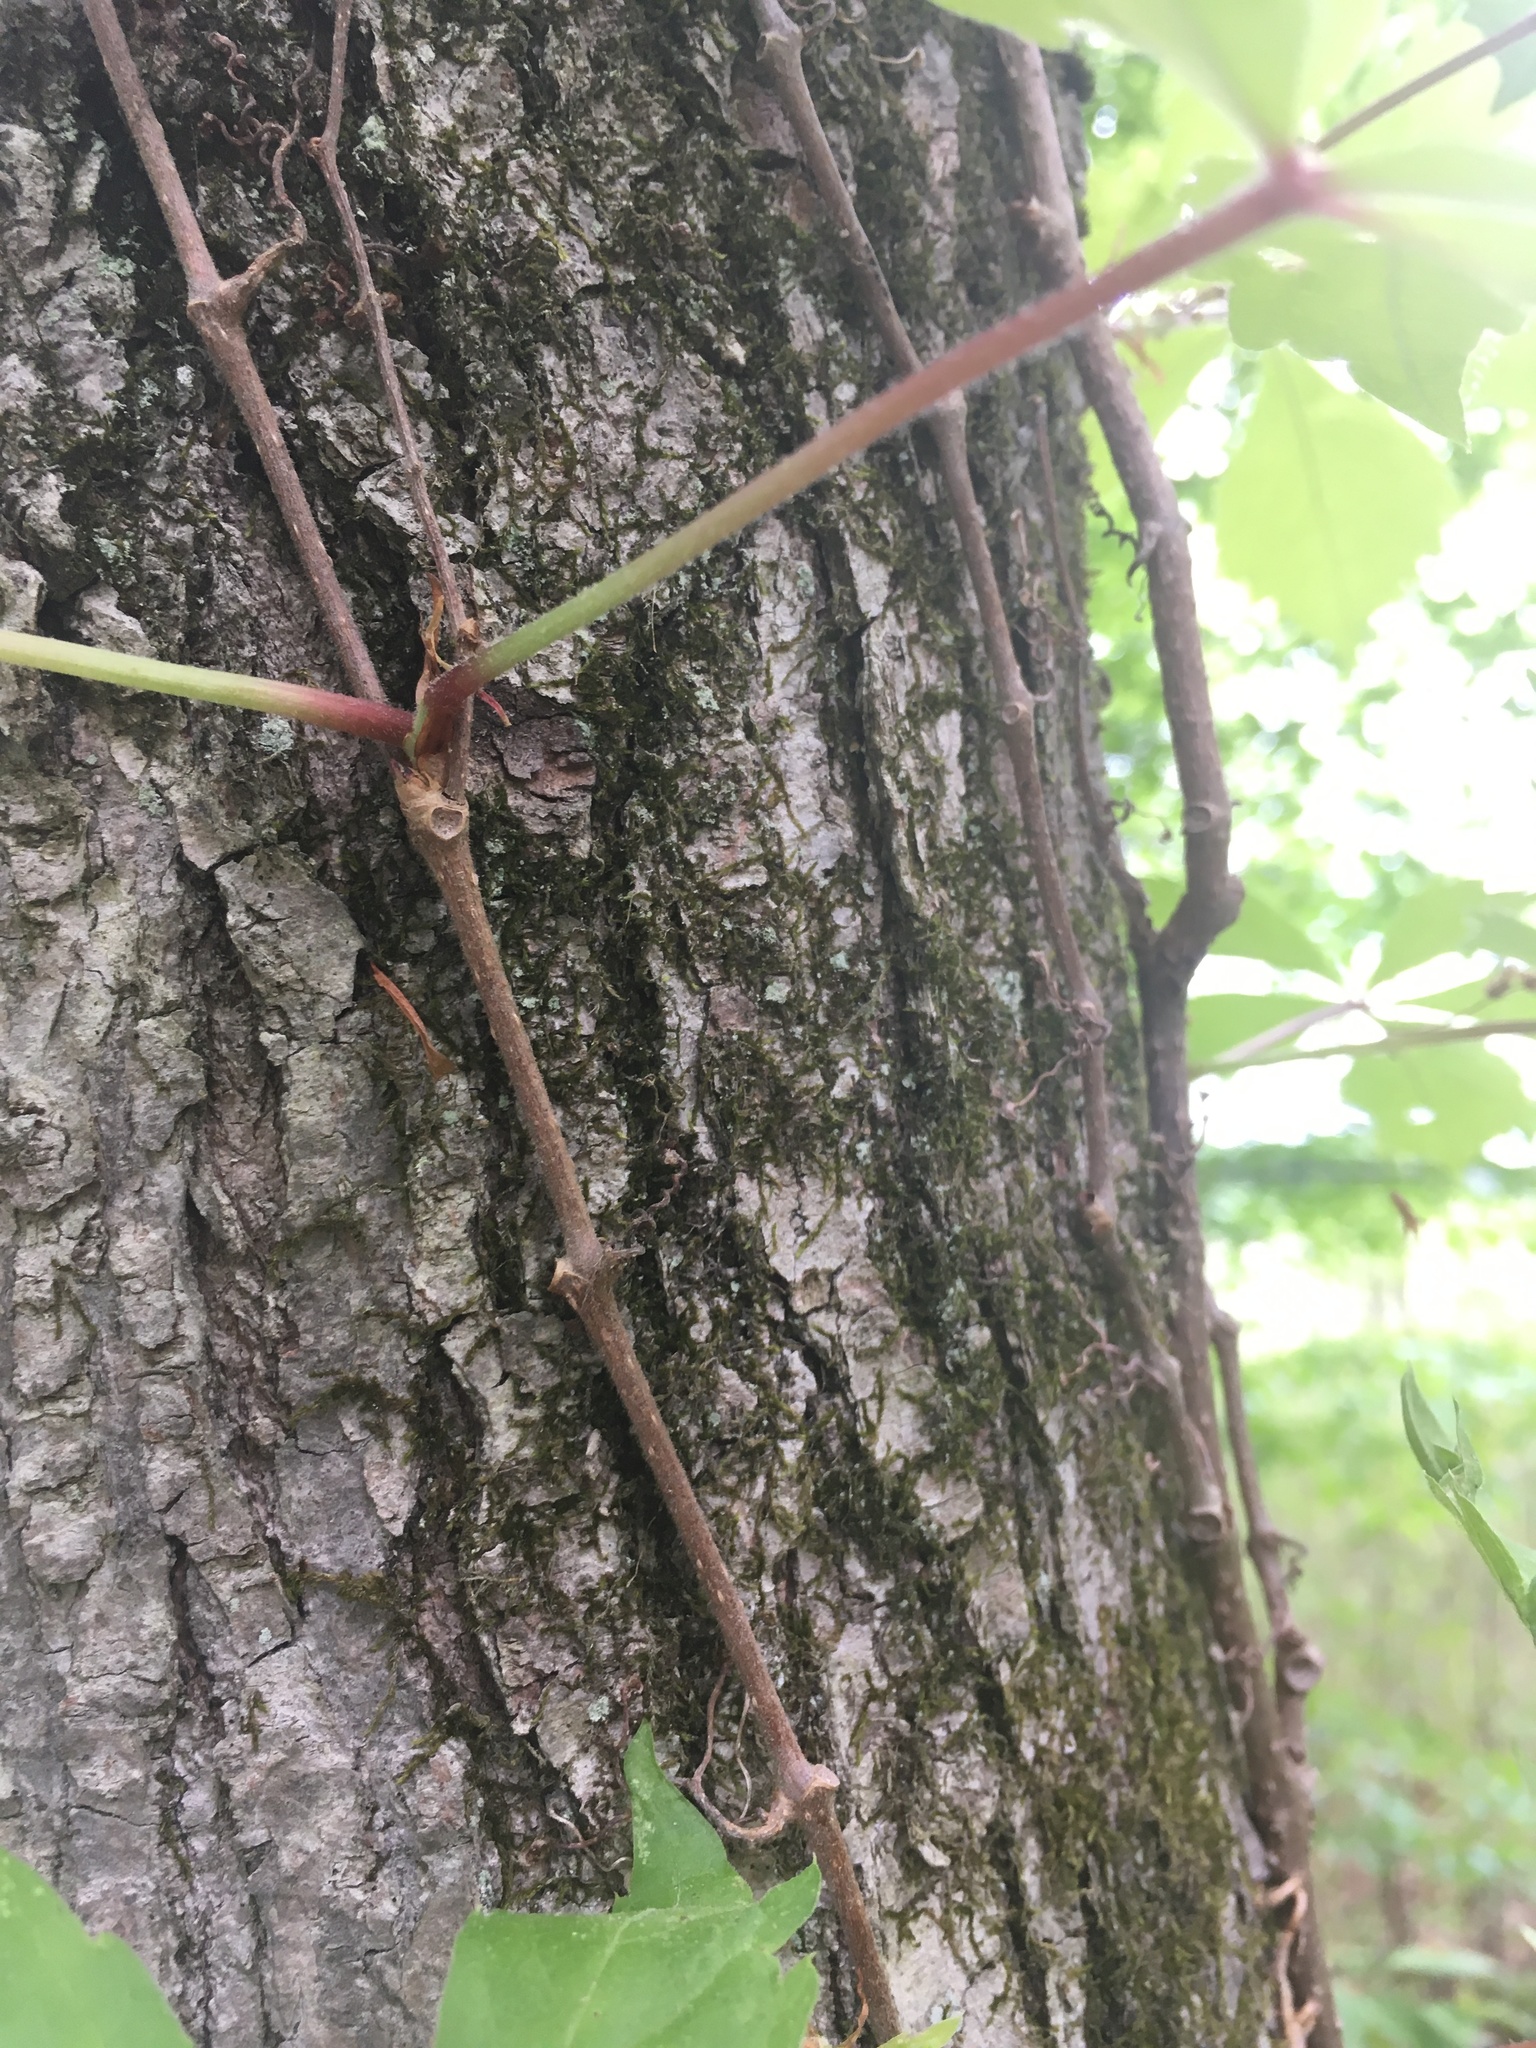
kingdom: Plantae
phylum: Tracheophyta
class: Magnoliopsida
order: Vitales
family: Vitaceae
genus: Parthenocissus
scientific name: Parthenocissus quinquefolia
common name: Virginia-creeper
